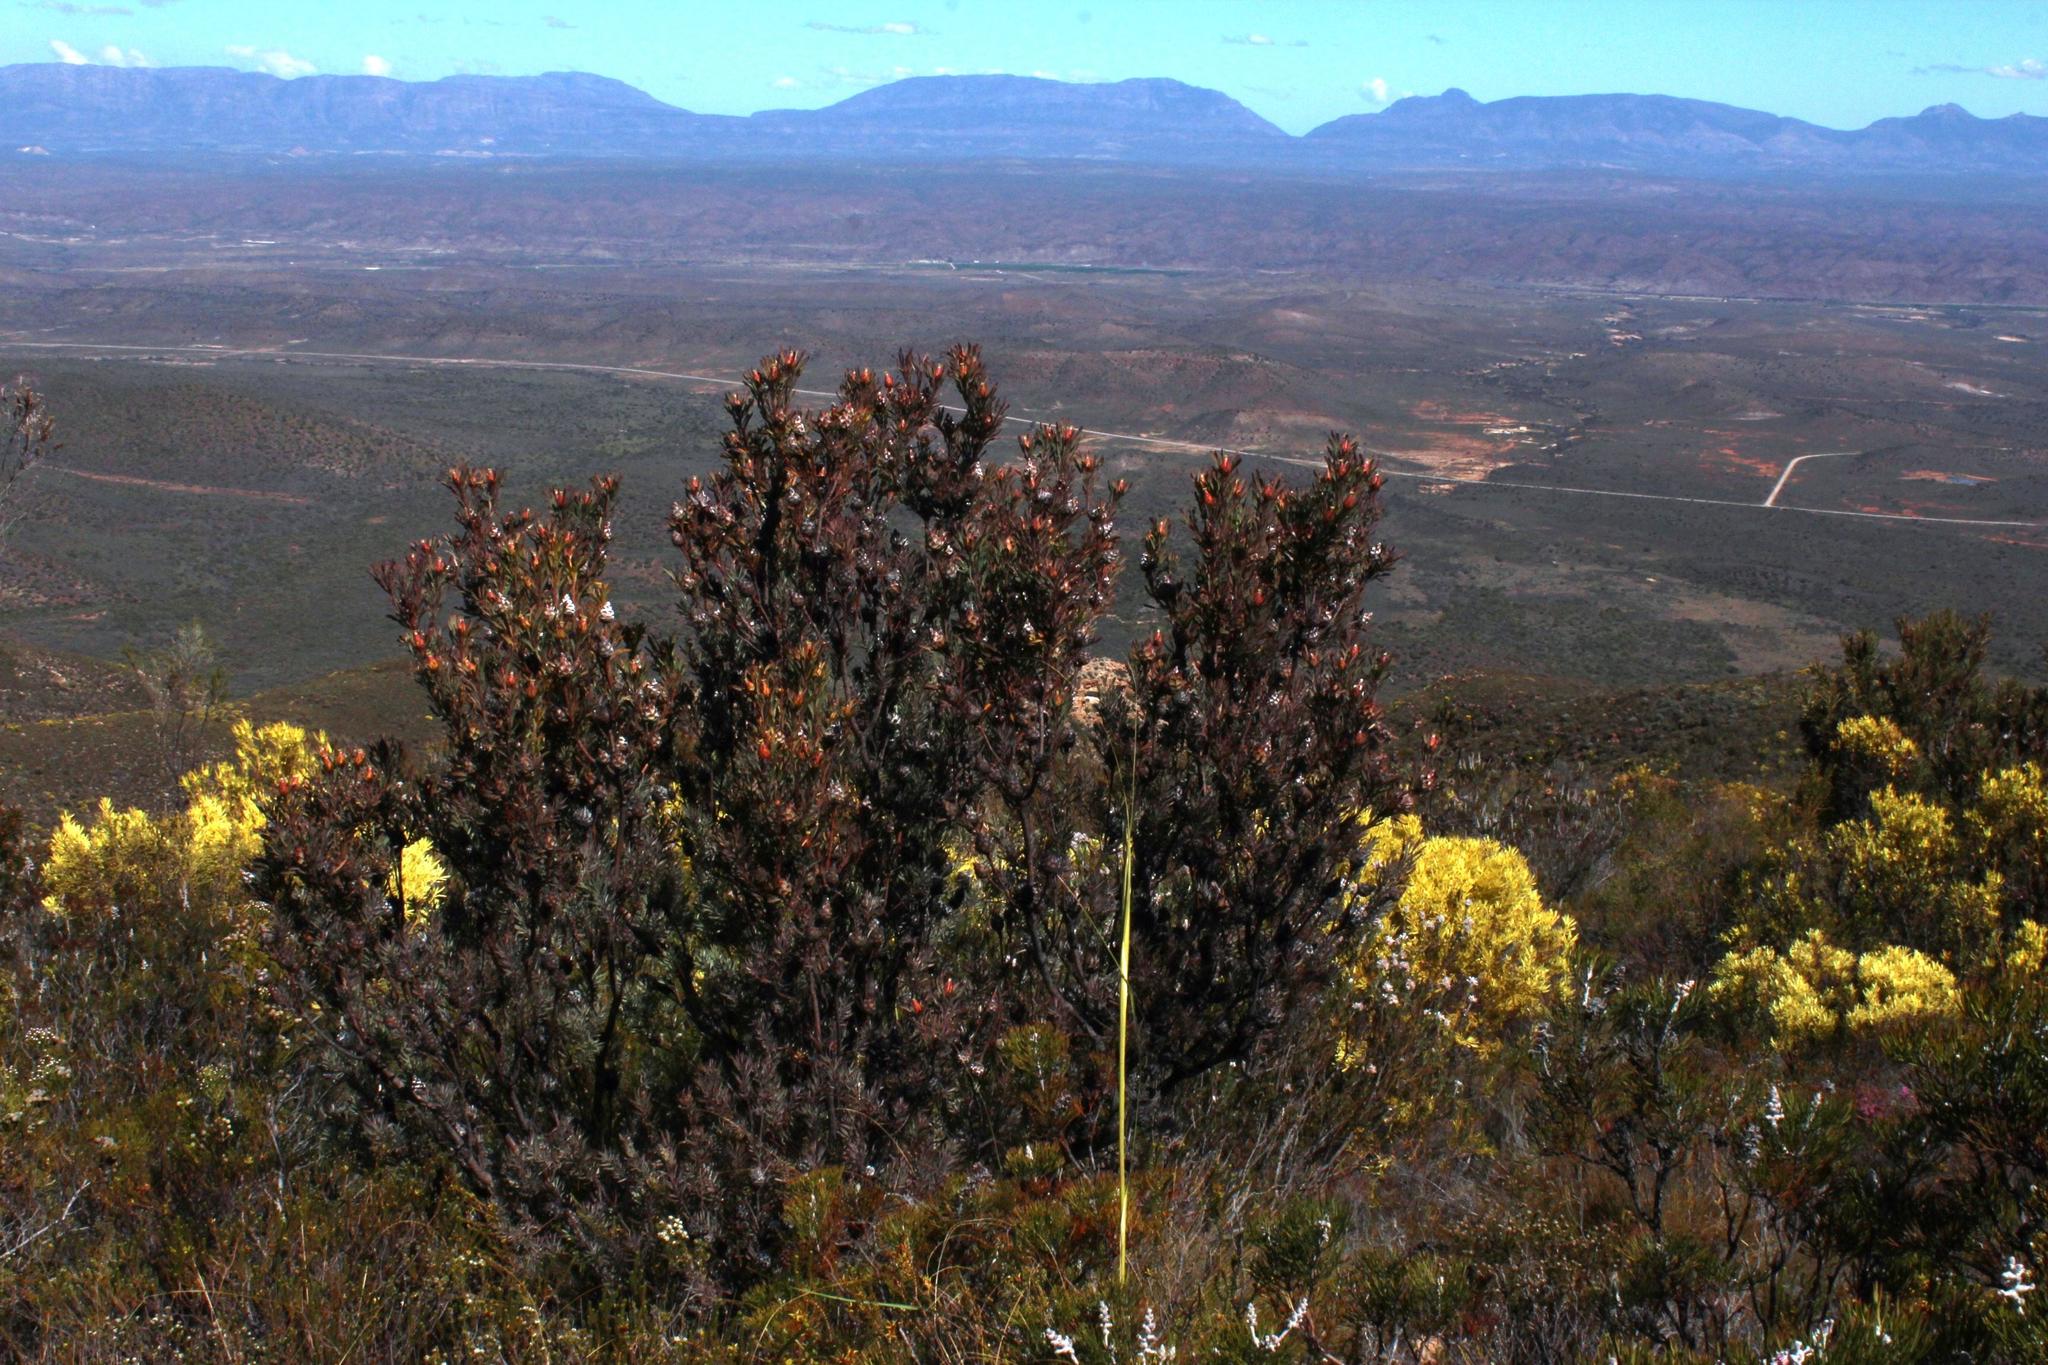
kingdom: Plantae
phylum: Tracheophyta
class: Magnoliopsida
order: Proteales
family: Proteaceae
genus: Leucadendron
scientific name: Leucadendron rubrum
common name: Spinning top
